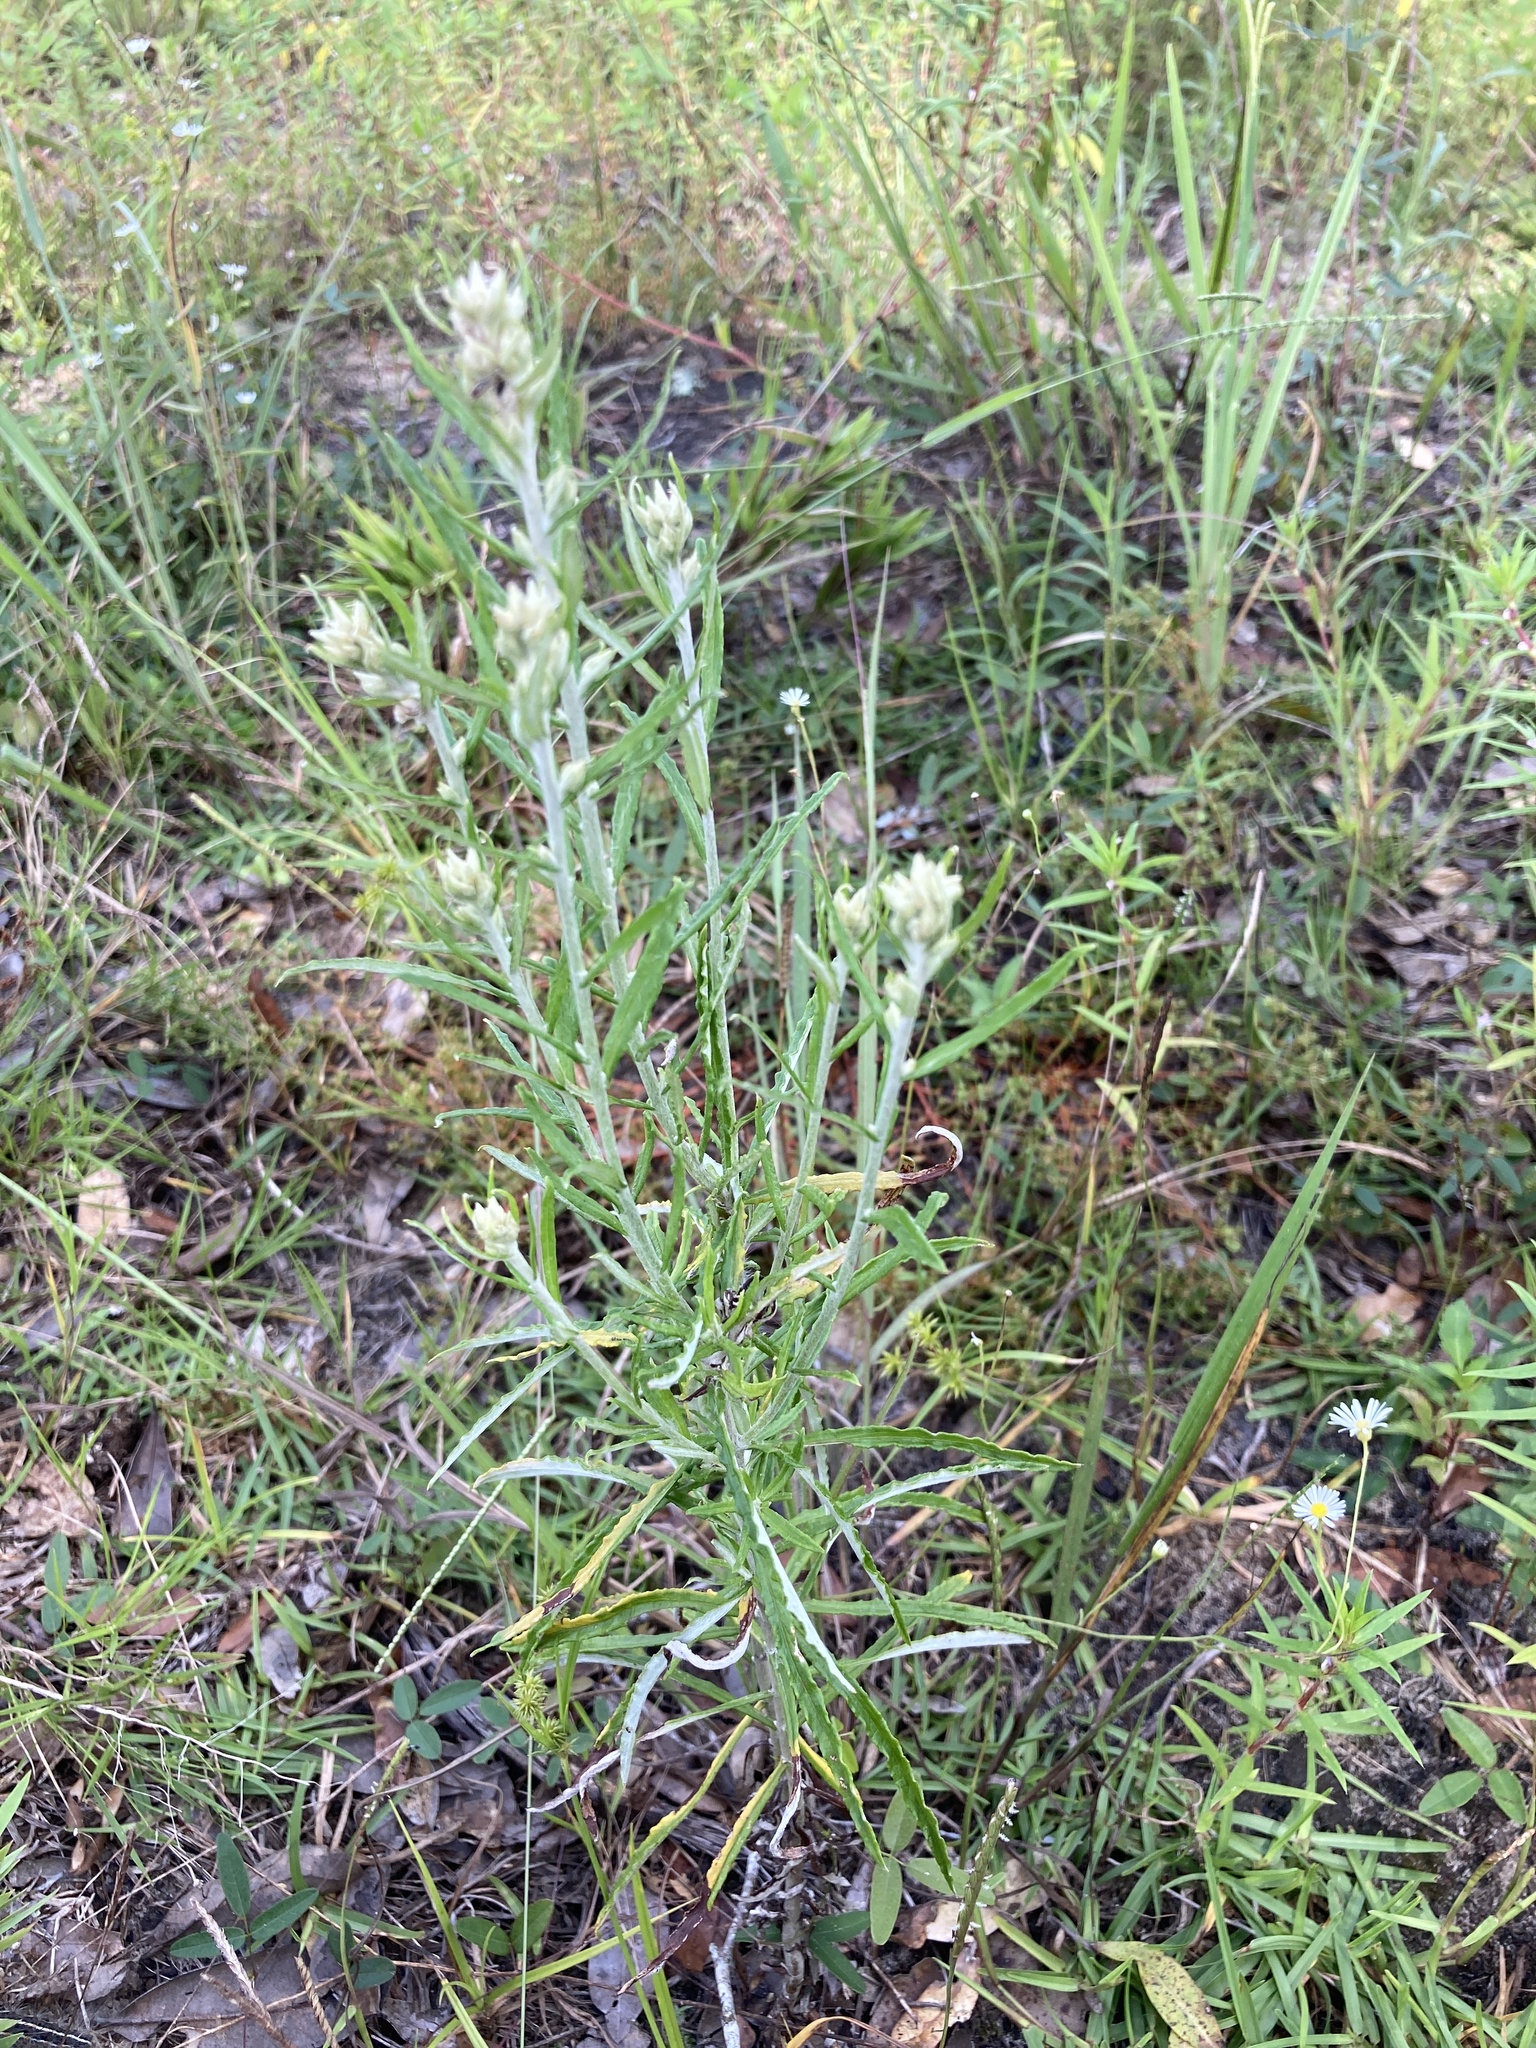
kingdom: Plantae
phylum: Tracheophyta
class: Magnoliopsida
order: Asterales
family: Asteraceae
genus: Pseudognaphalium
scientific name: Pseudognaphalium obtusifolium
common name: Eastern rabbit-tobacco
